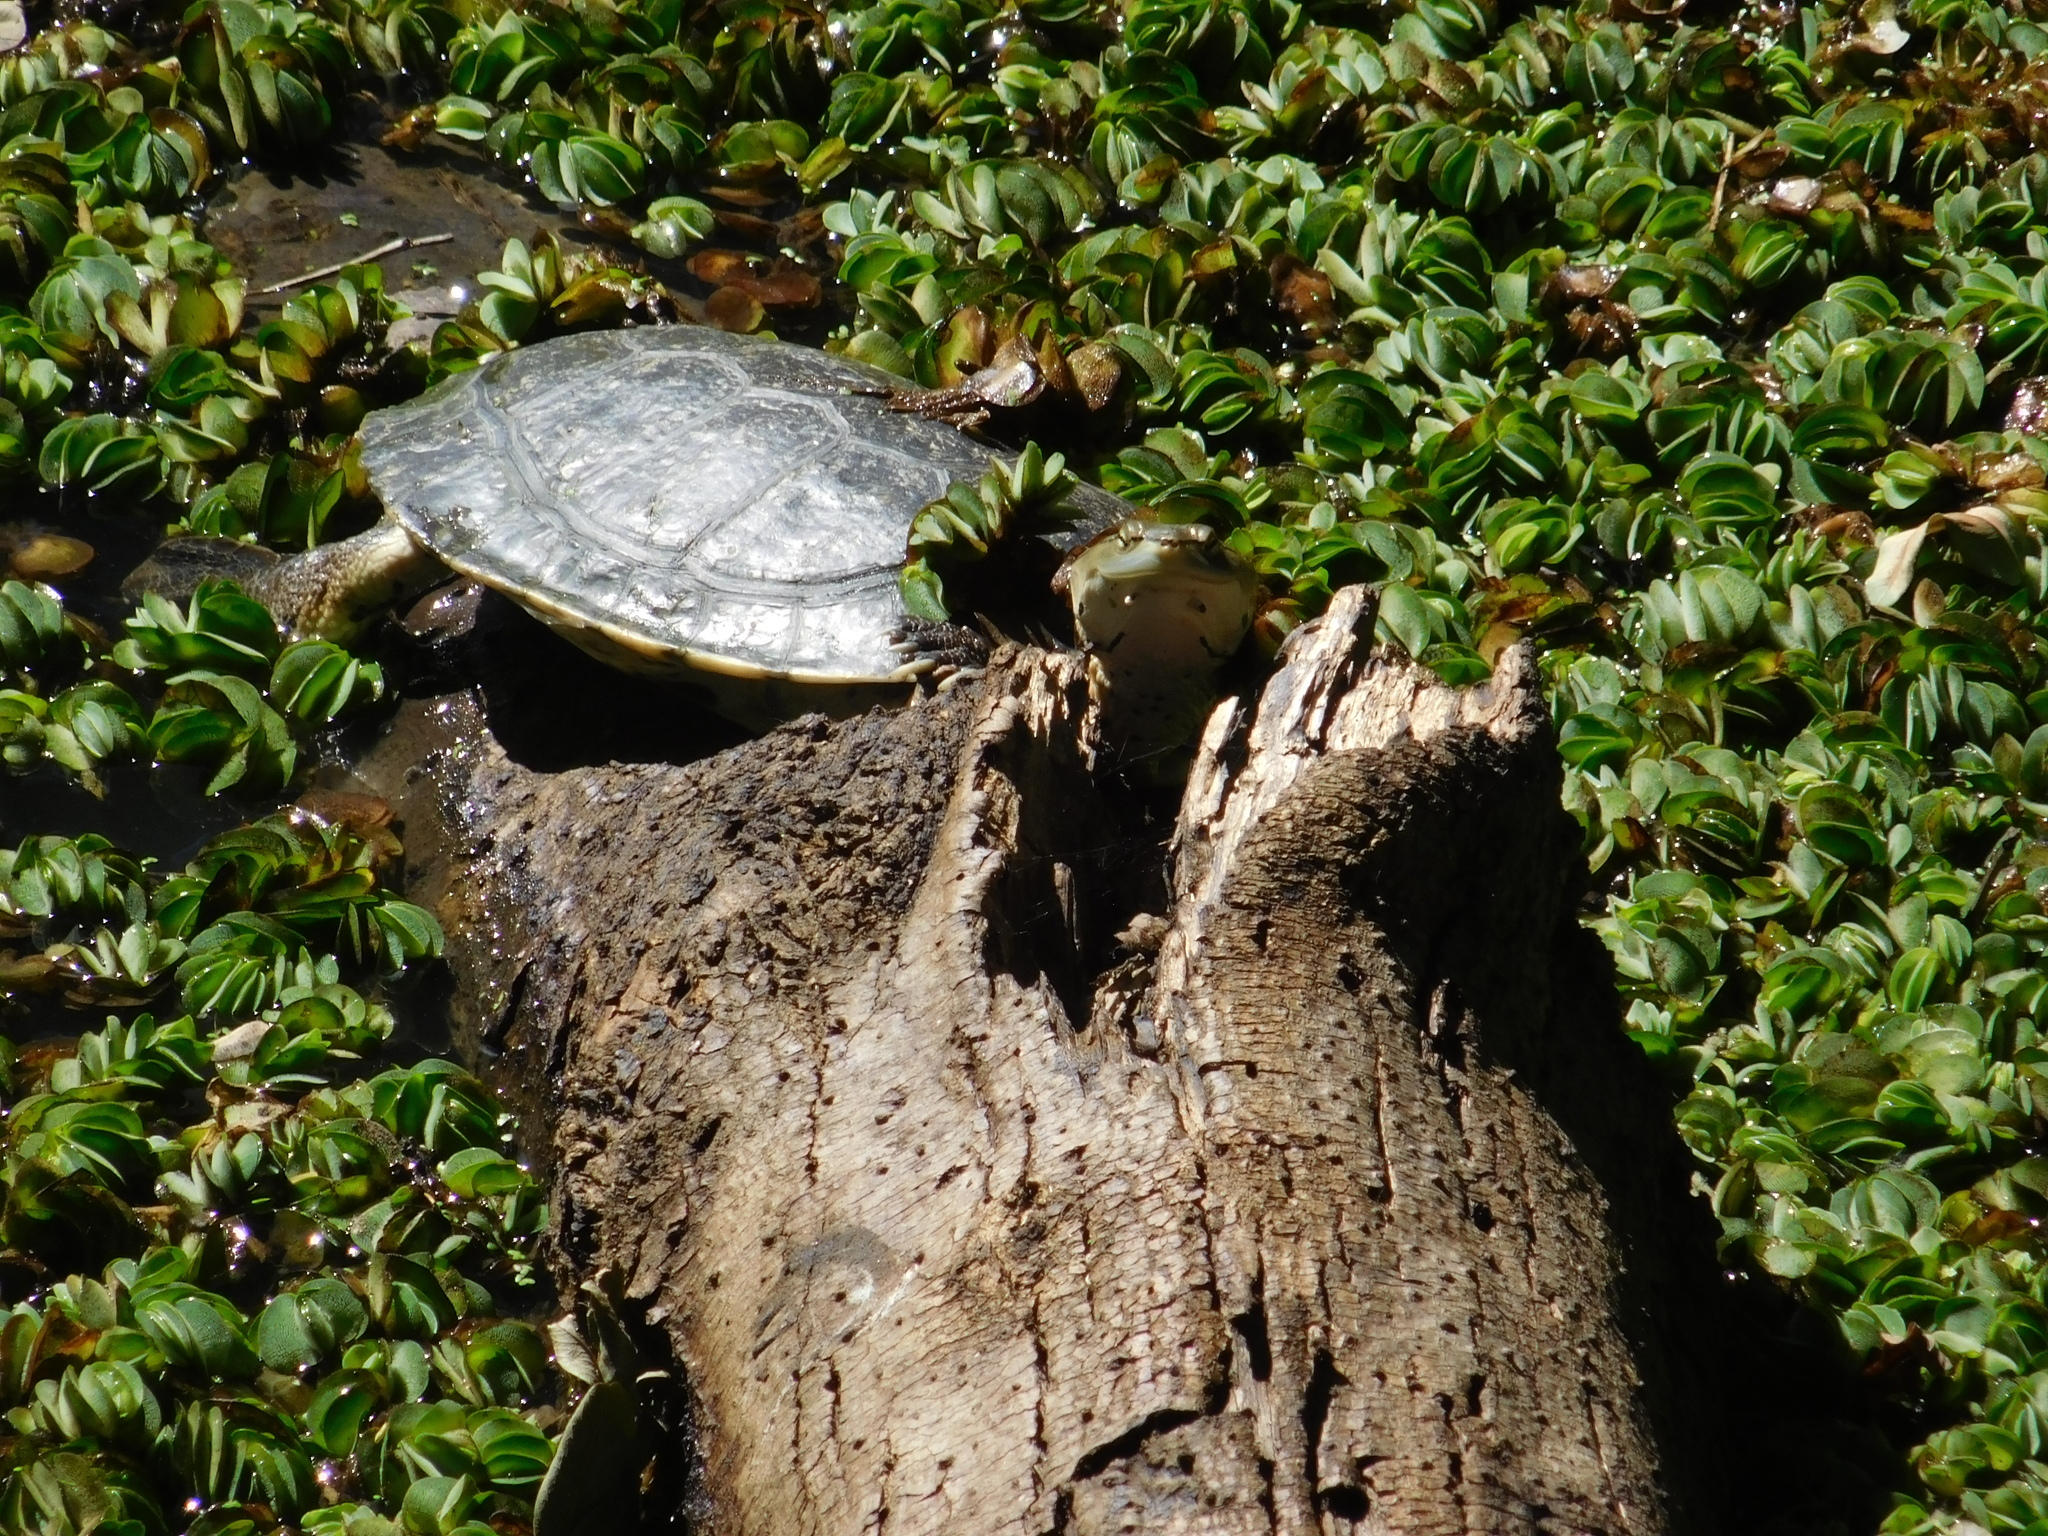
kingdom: Animalia
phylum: Chordata
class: Testudines
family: Chelidae
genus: Phrynops
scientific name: Phrynops hilarii
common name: Side-necked turtle of saint hillaire
